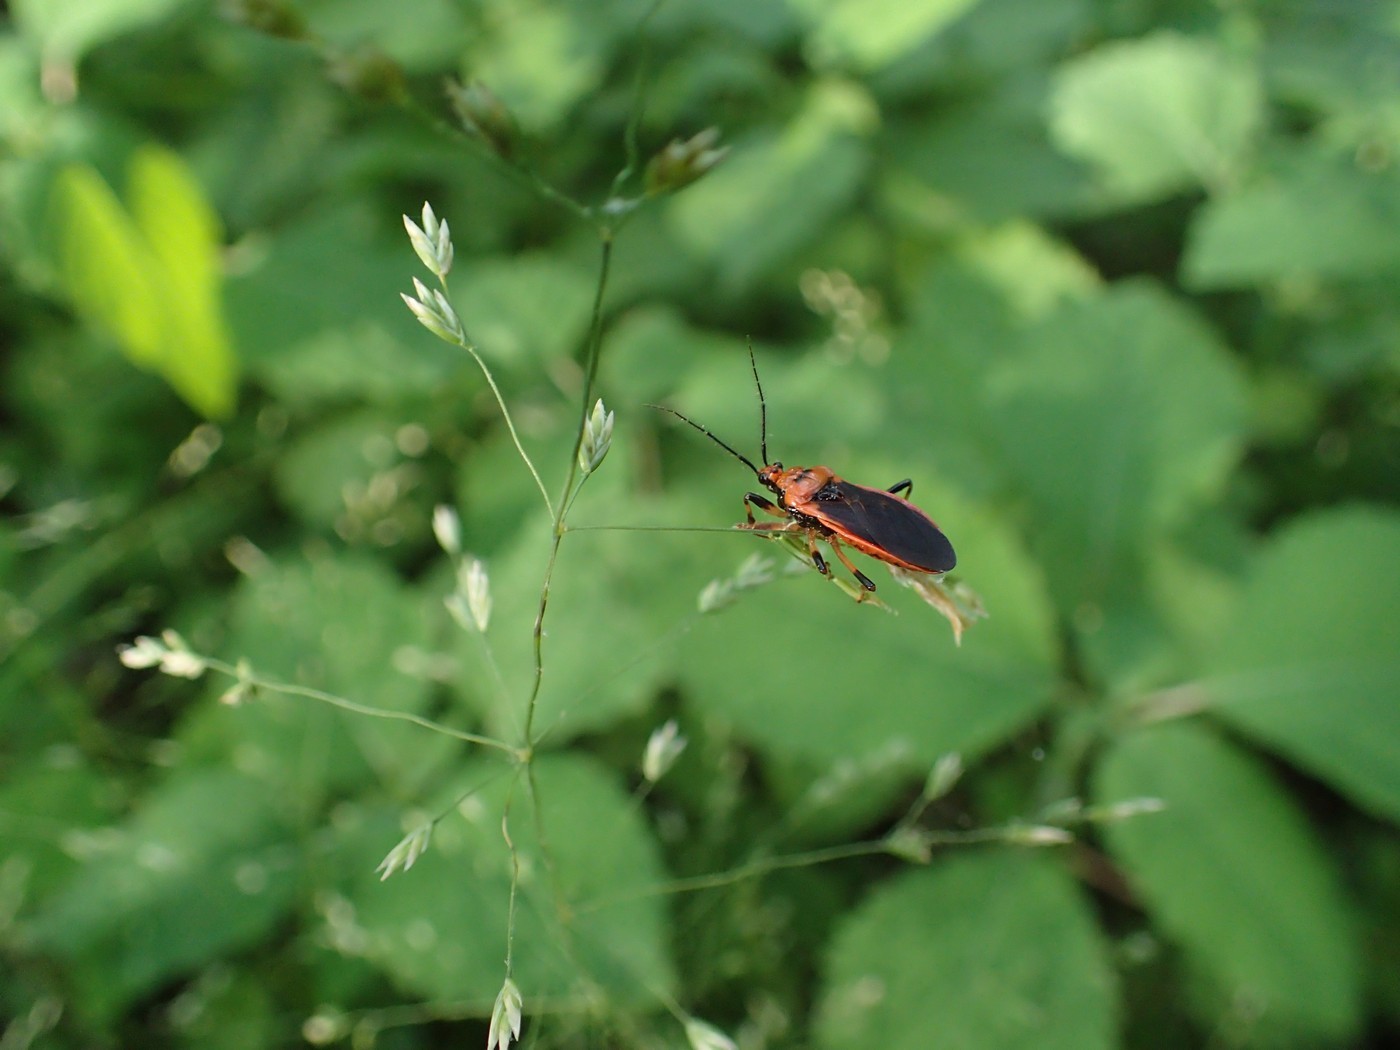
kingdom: Animalia
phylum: Arthropoda
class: Insecta
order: Hemiptera
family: Reduviidae
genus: Rhiginia
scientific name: Rhiginia cruciata
